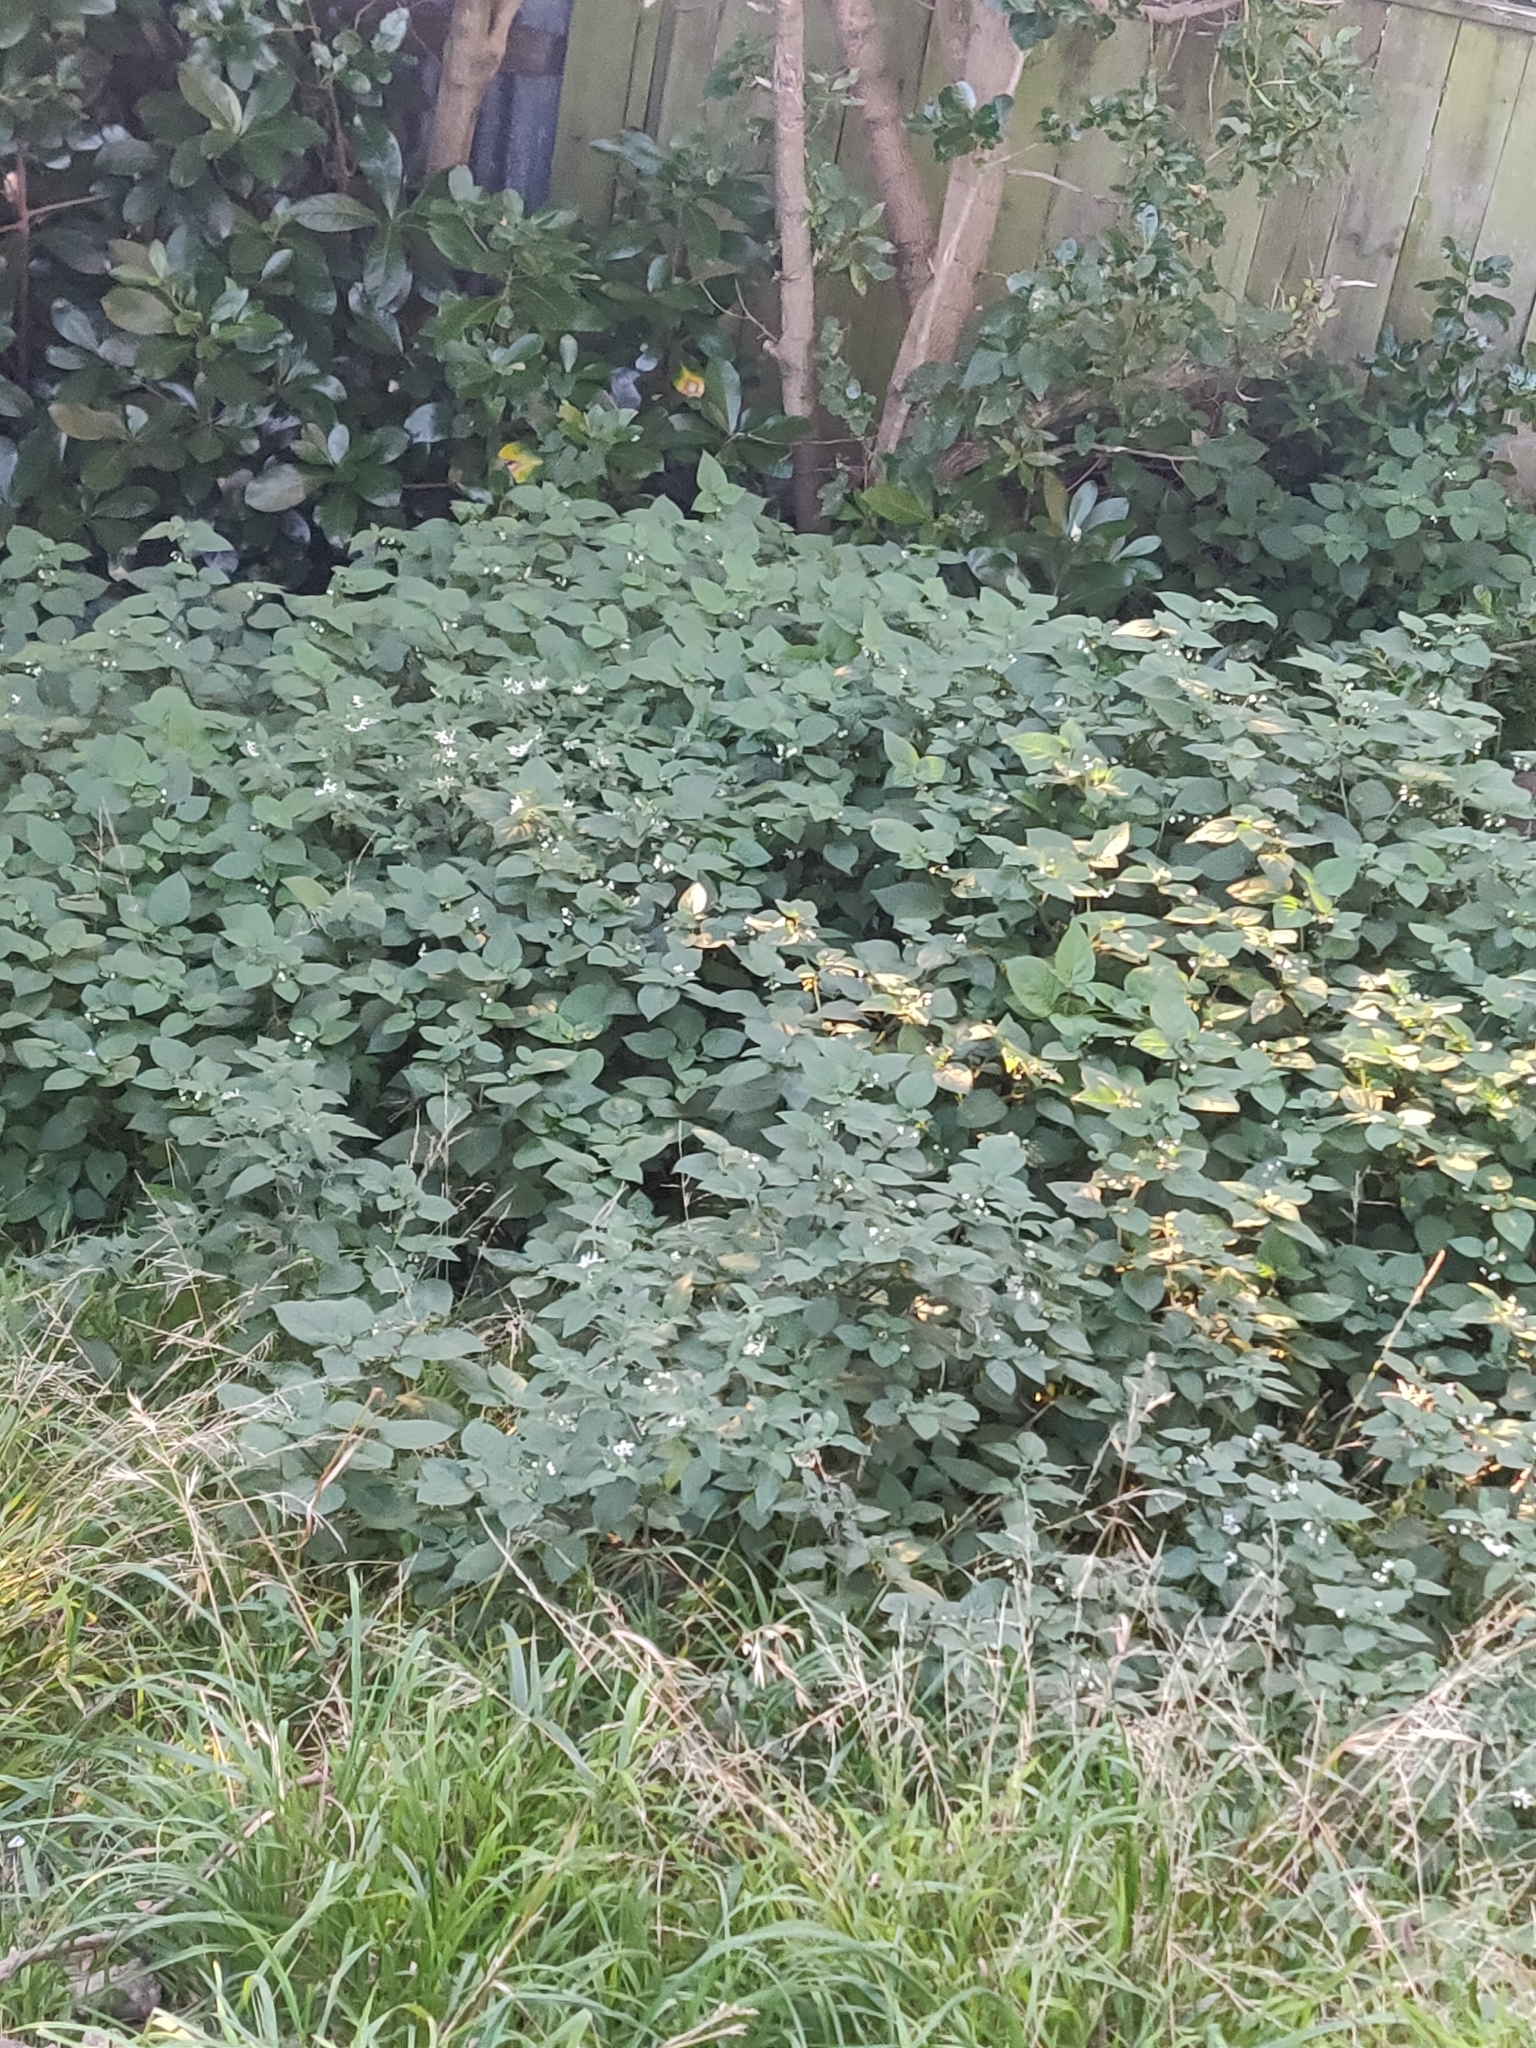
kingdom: Plantae
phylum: Tracheophyta
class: Magnoliopsida
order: Solanales
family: Solanaceae
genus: Solanum
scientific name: Solanum nigrum
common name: Black nightshade
